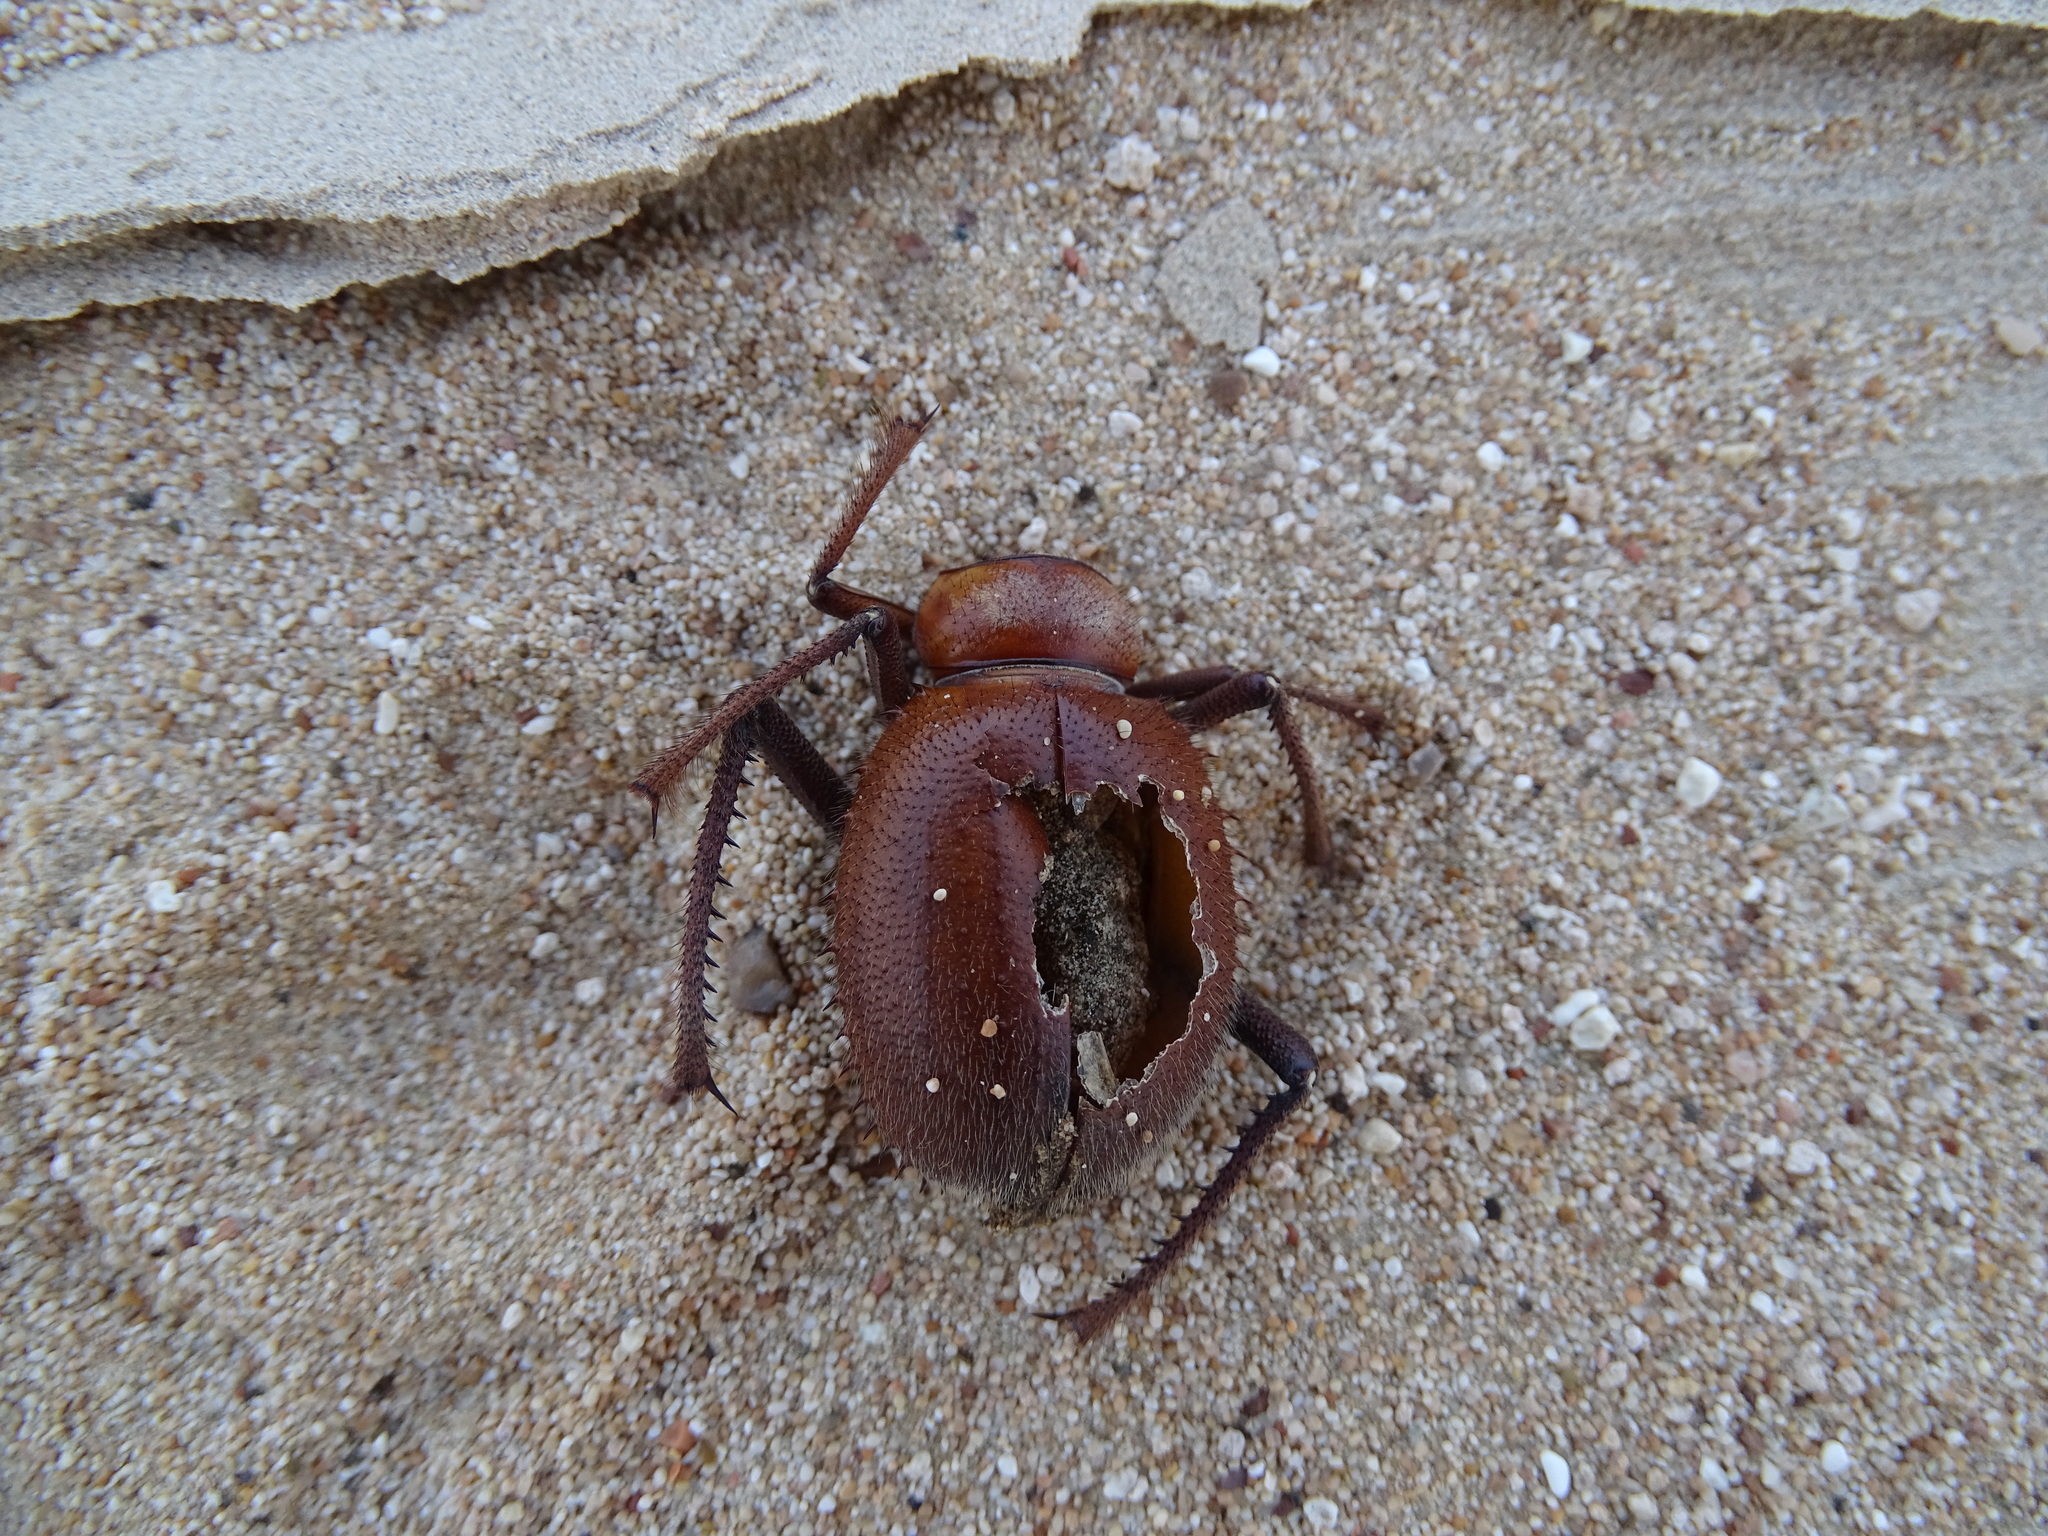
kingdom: Animalia
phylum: Arthropoda
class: Insecta
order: Coleoptera
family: Tenebrionidae
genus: Prionotheca
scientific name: Prionotheca coronata
